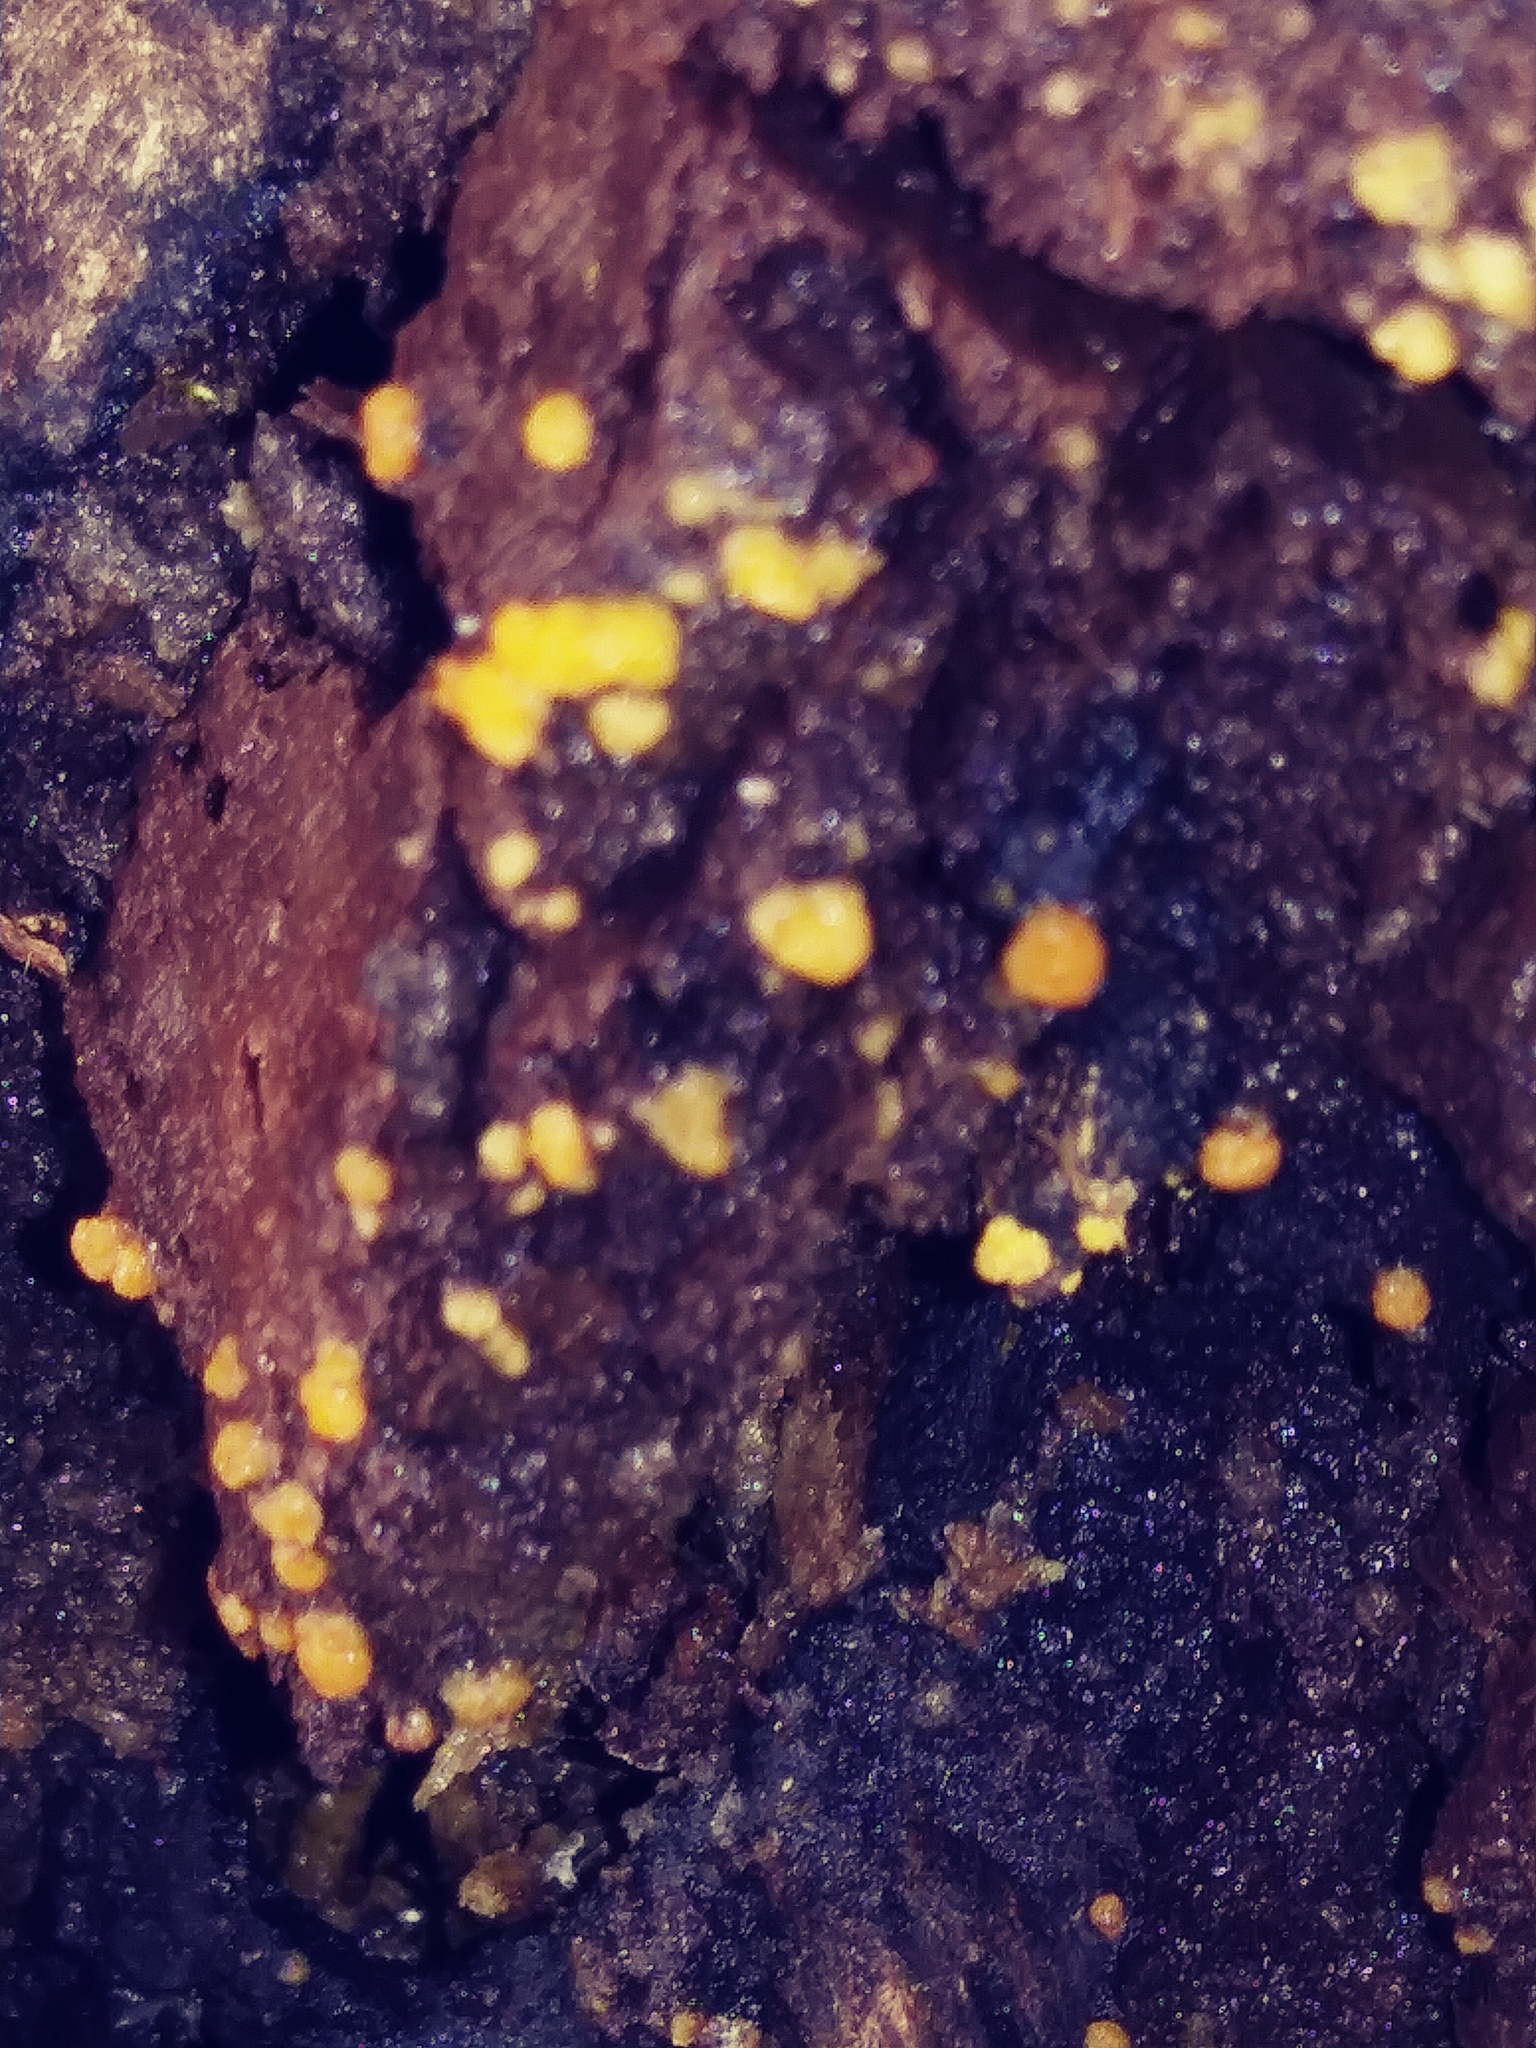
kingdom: Fungi
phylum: Basidiomycota
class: Dacrymycetes
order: Dacrymycetales
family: Dacrymycetaceae
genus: Dacrymyces
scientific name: Dacrymyces stillatus
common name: Common jelly spot
